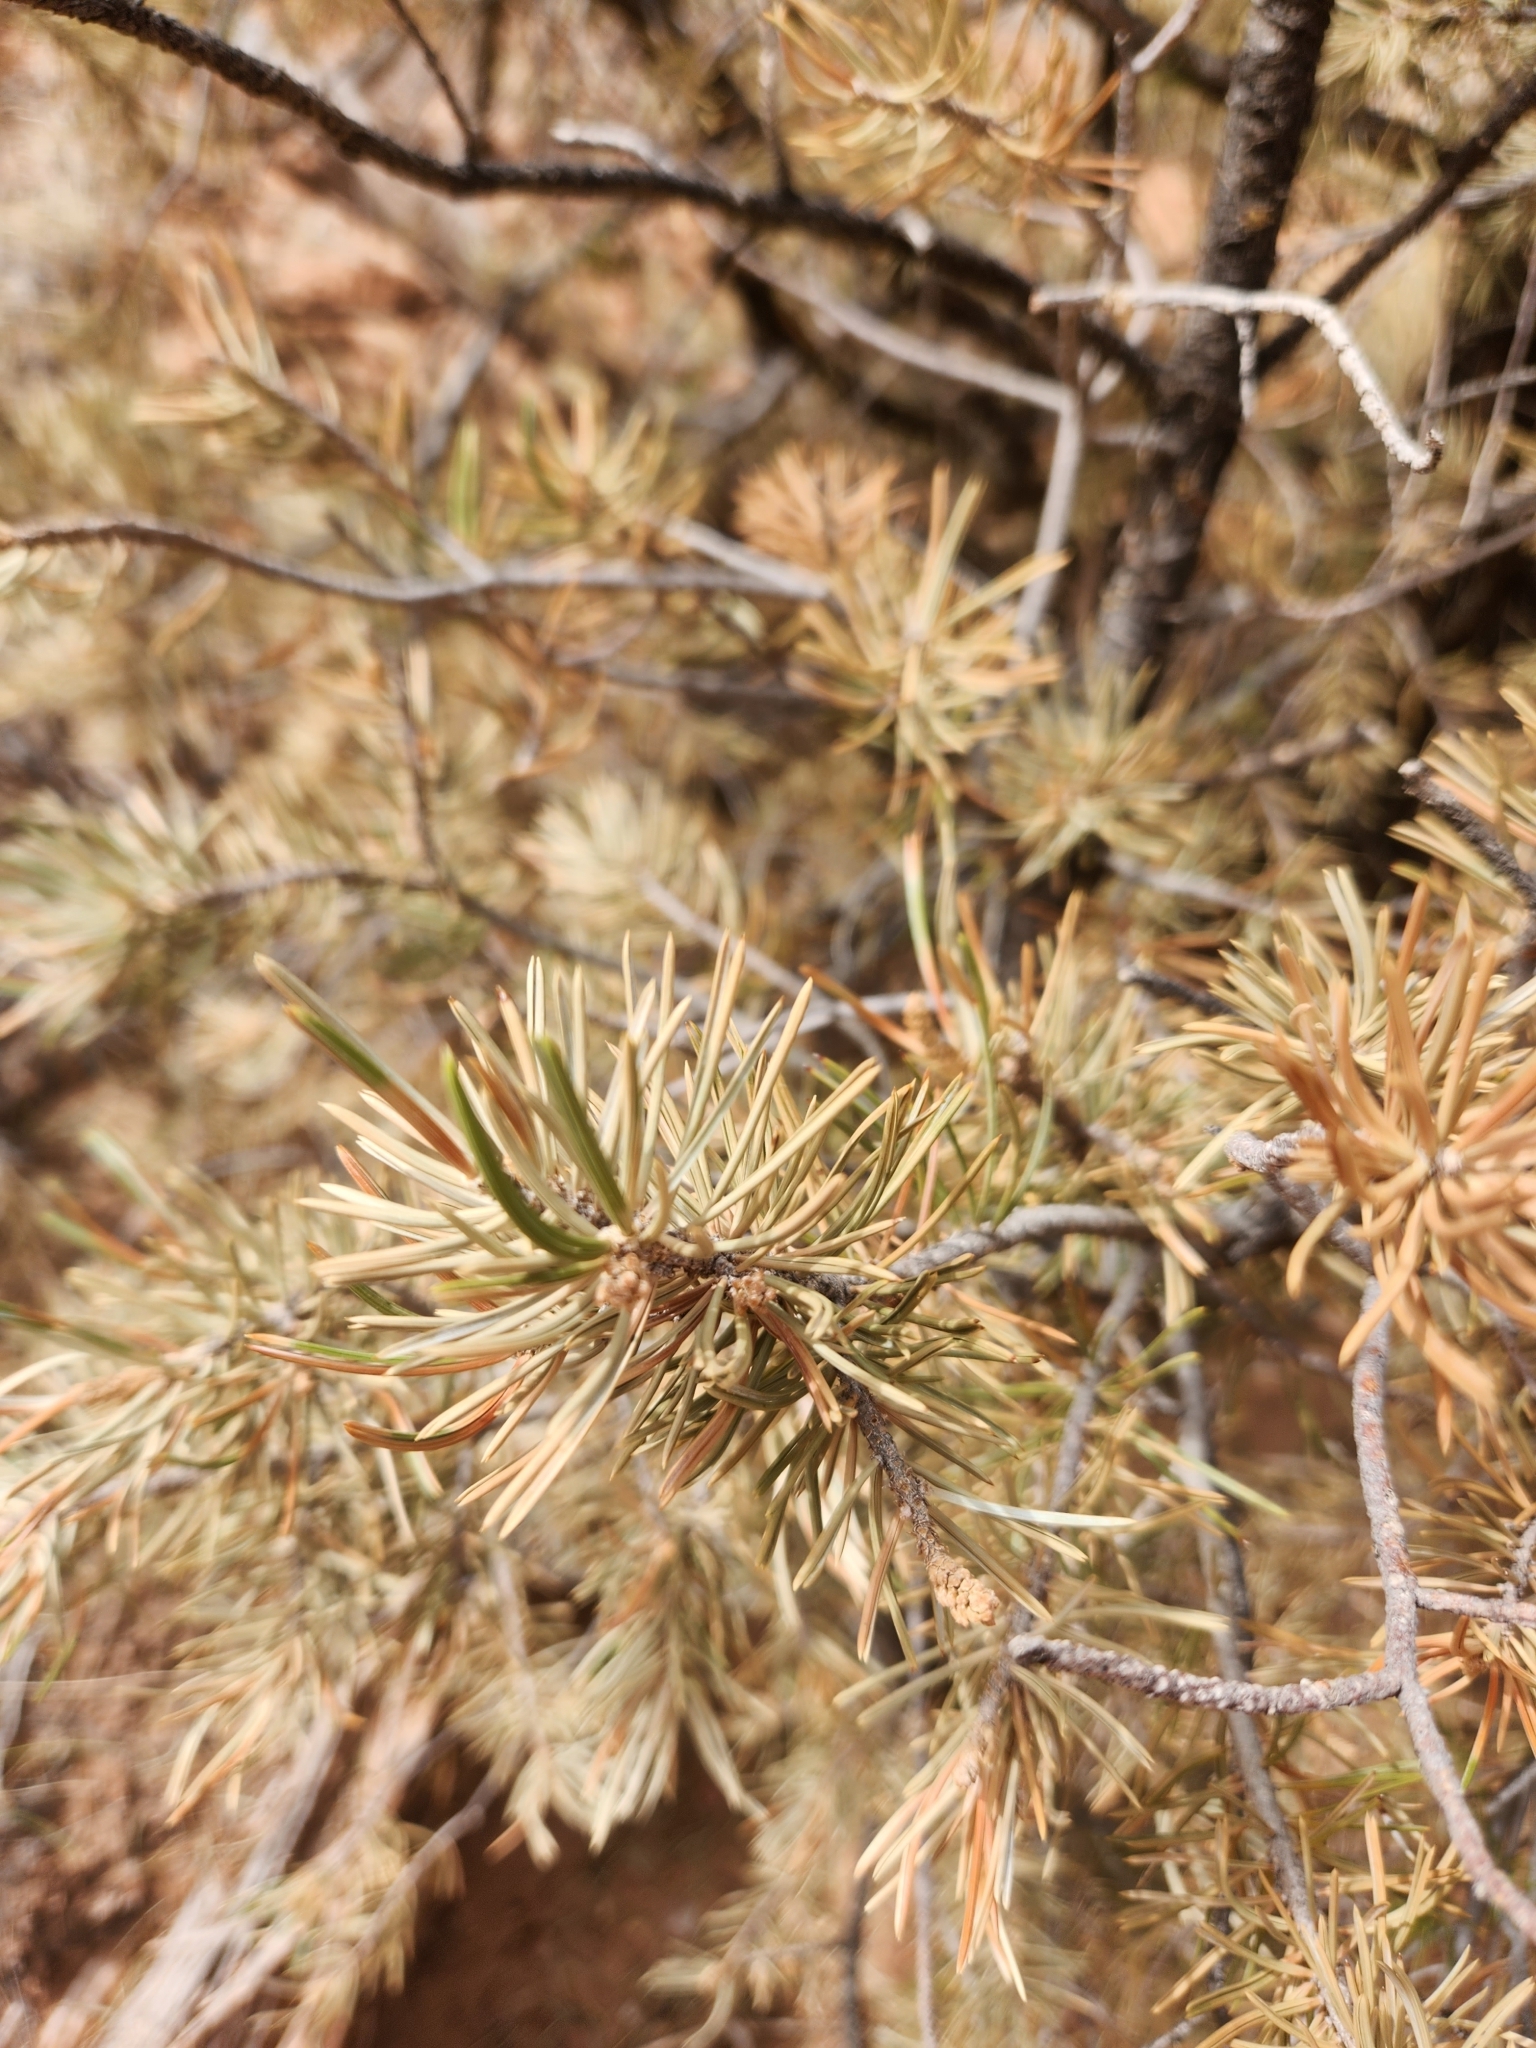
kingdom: Plantae
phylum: Tracheophyta
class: Pinopsida
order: Pinales
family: Pinaceae
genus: Pinus
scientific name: Pinus edulis
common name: Colorado pinyon
